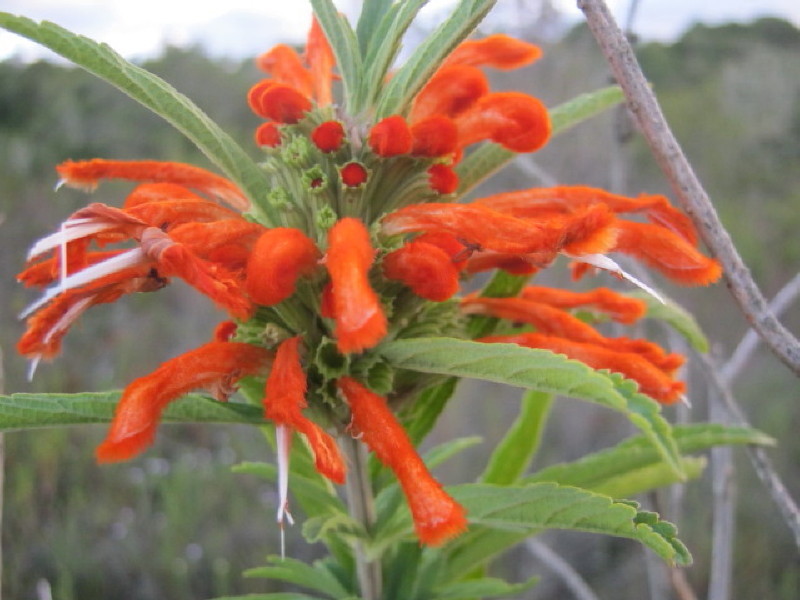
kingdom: Plantae
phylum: Tracheophyta
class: Magnoliopsida
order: Lamiales
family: Lamiaceae
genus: Leonotis
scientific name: Leonotis leonurus
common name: Lion's ear
